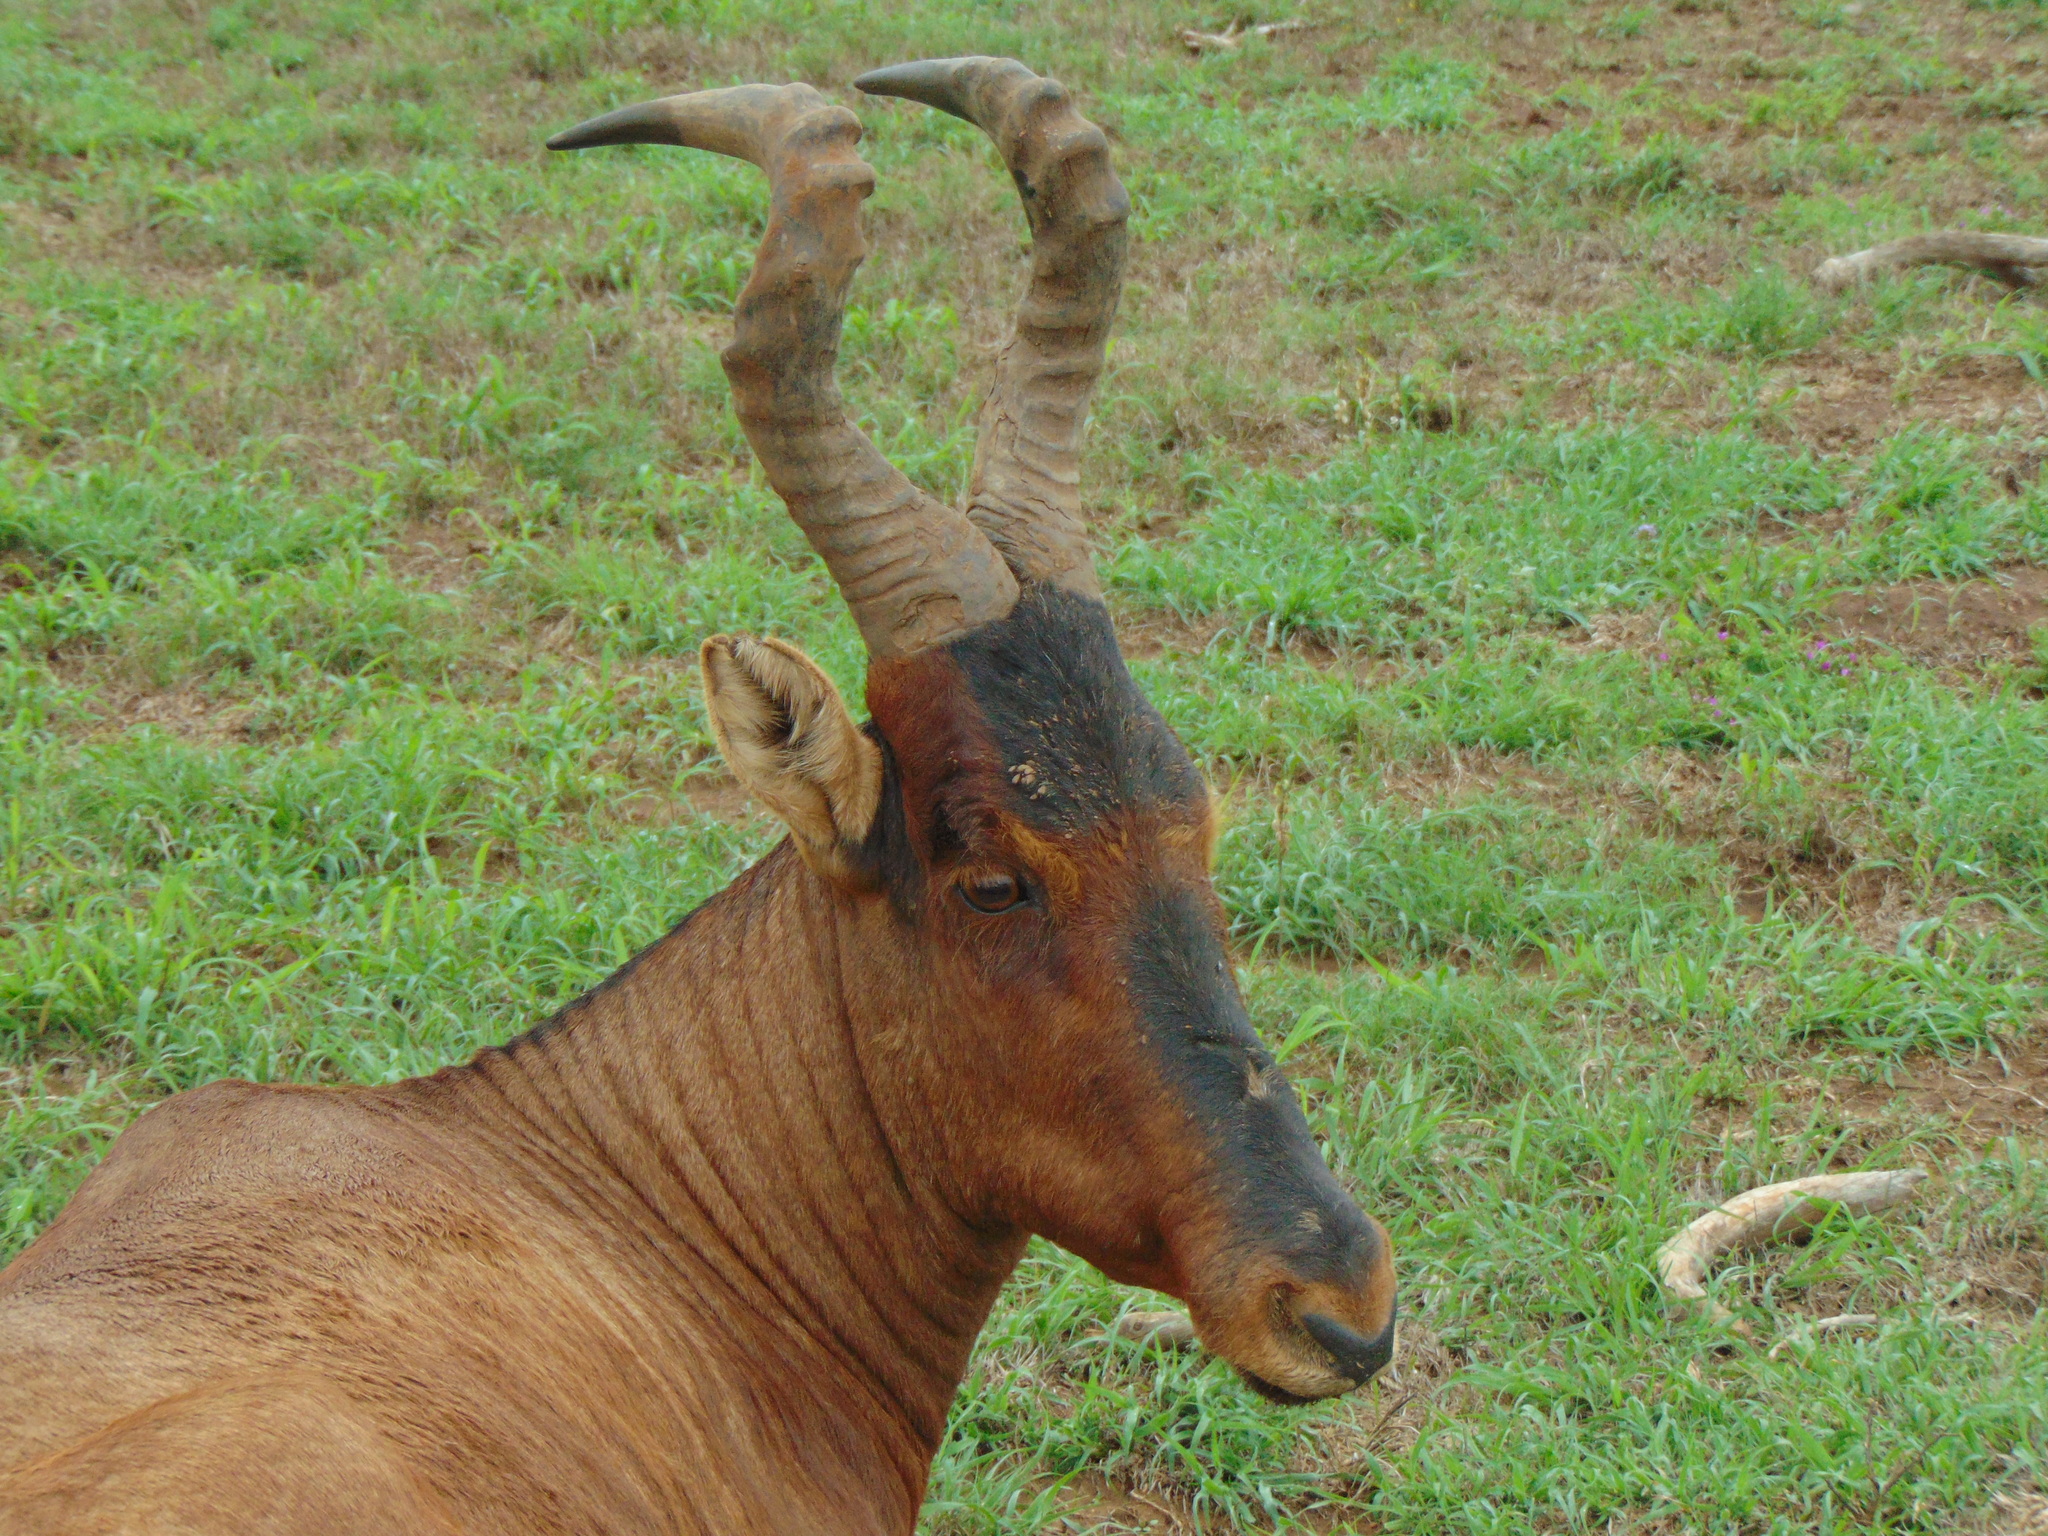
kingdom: Animalia
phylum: Chordata
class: Mammalia
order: Artiodactyla
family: Bovidae
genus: Alcelaphus
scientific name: Alcelaphus caama
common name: Red hartebeest
